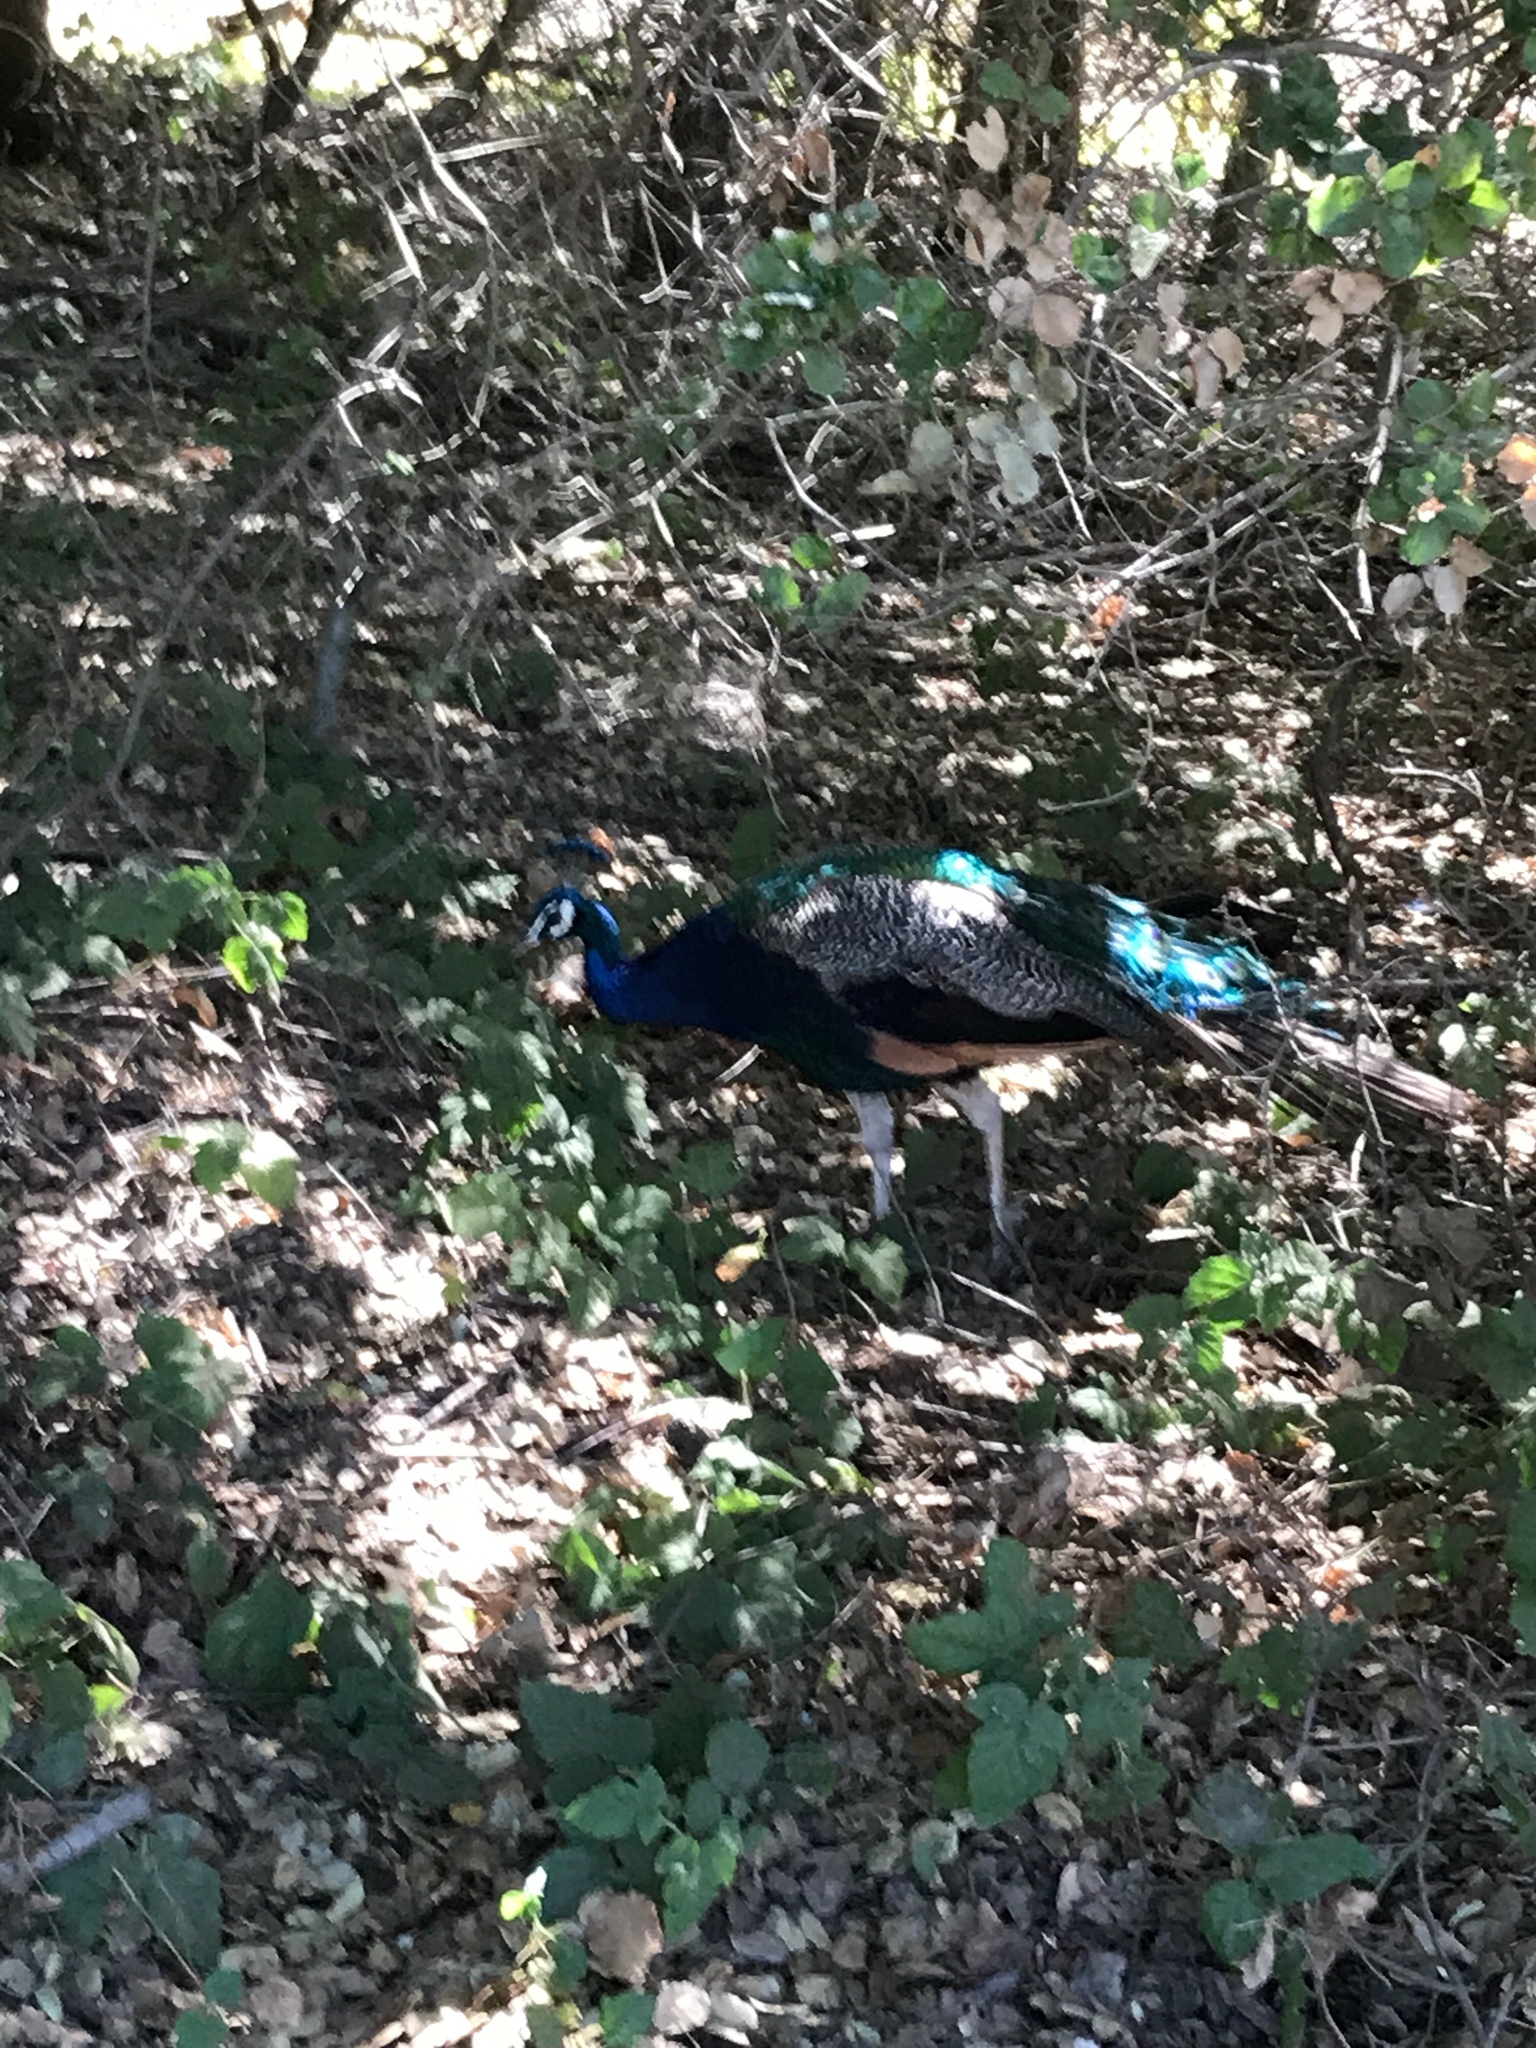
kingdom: Animalia
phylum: Chordata
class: Aves
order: Galliformes
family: Phasianidae
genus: Pavo
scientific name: Pavo cristatus
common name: Indian peafowl
